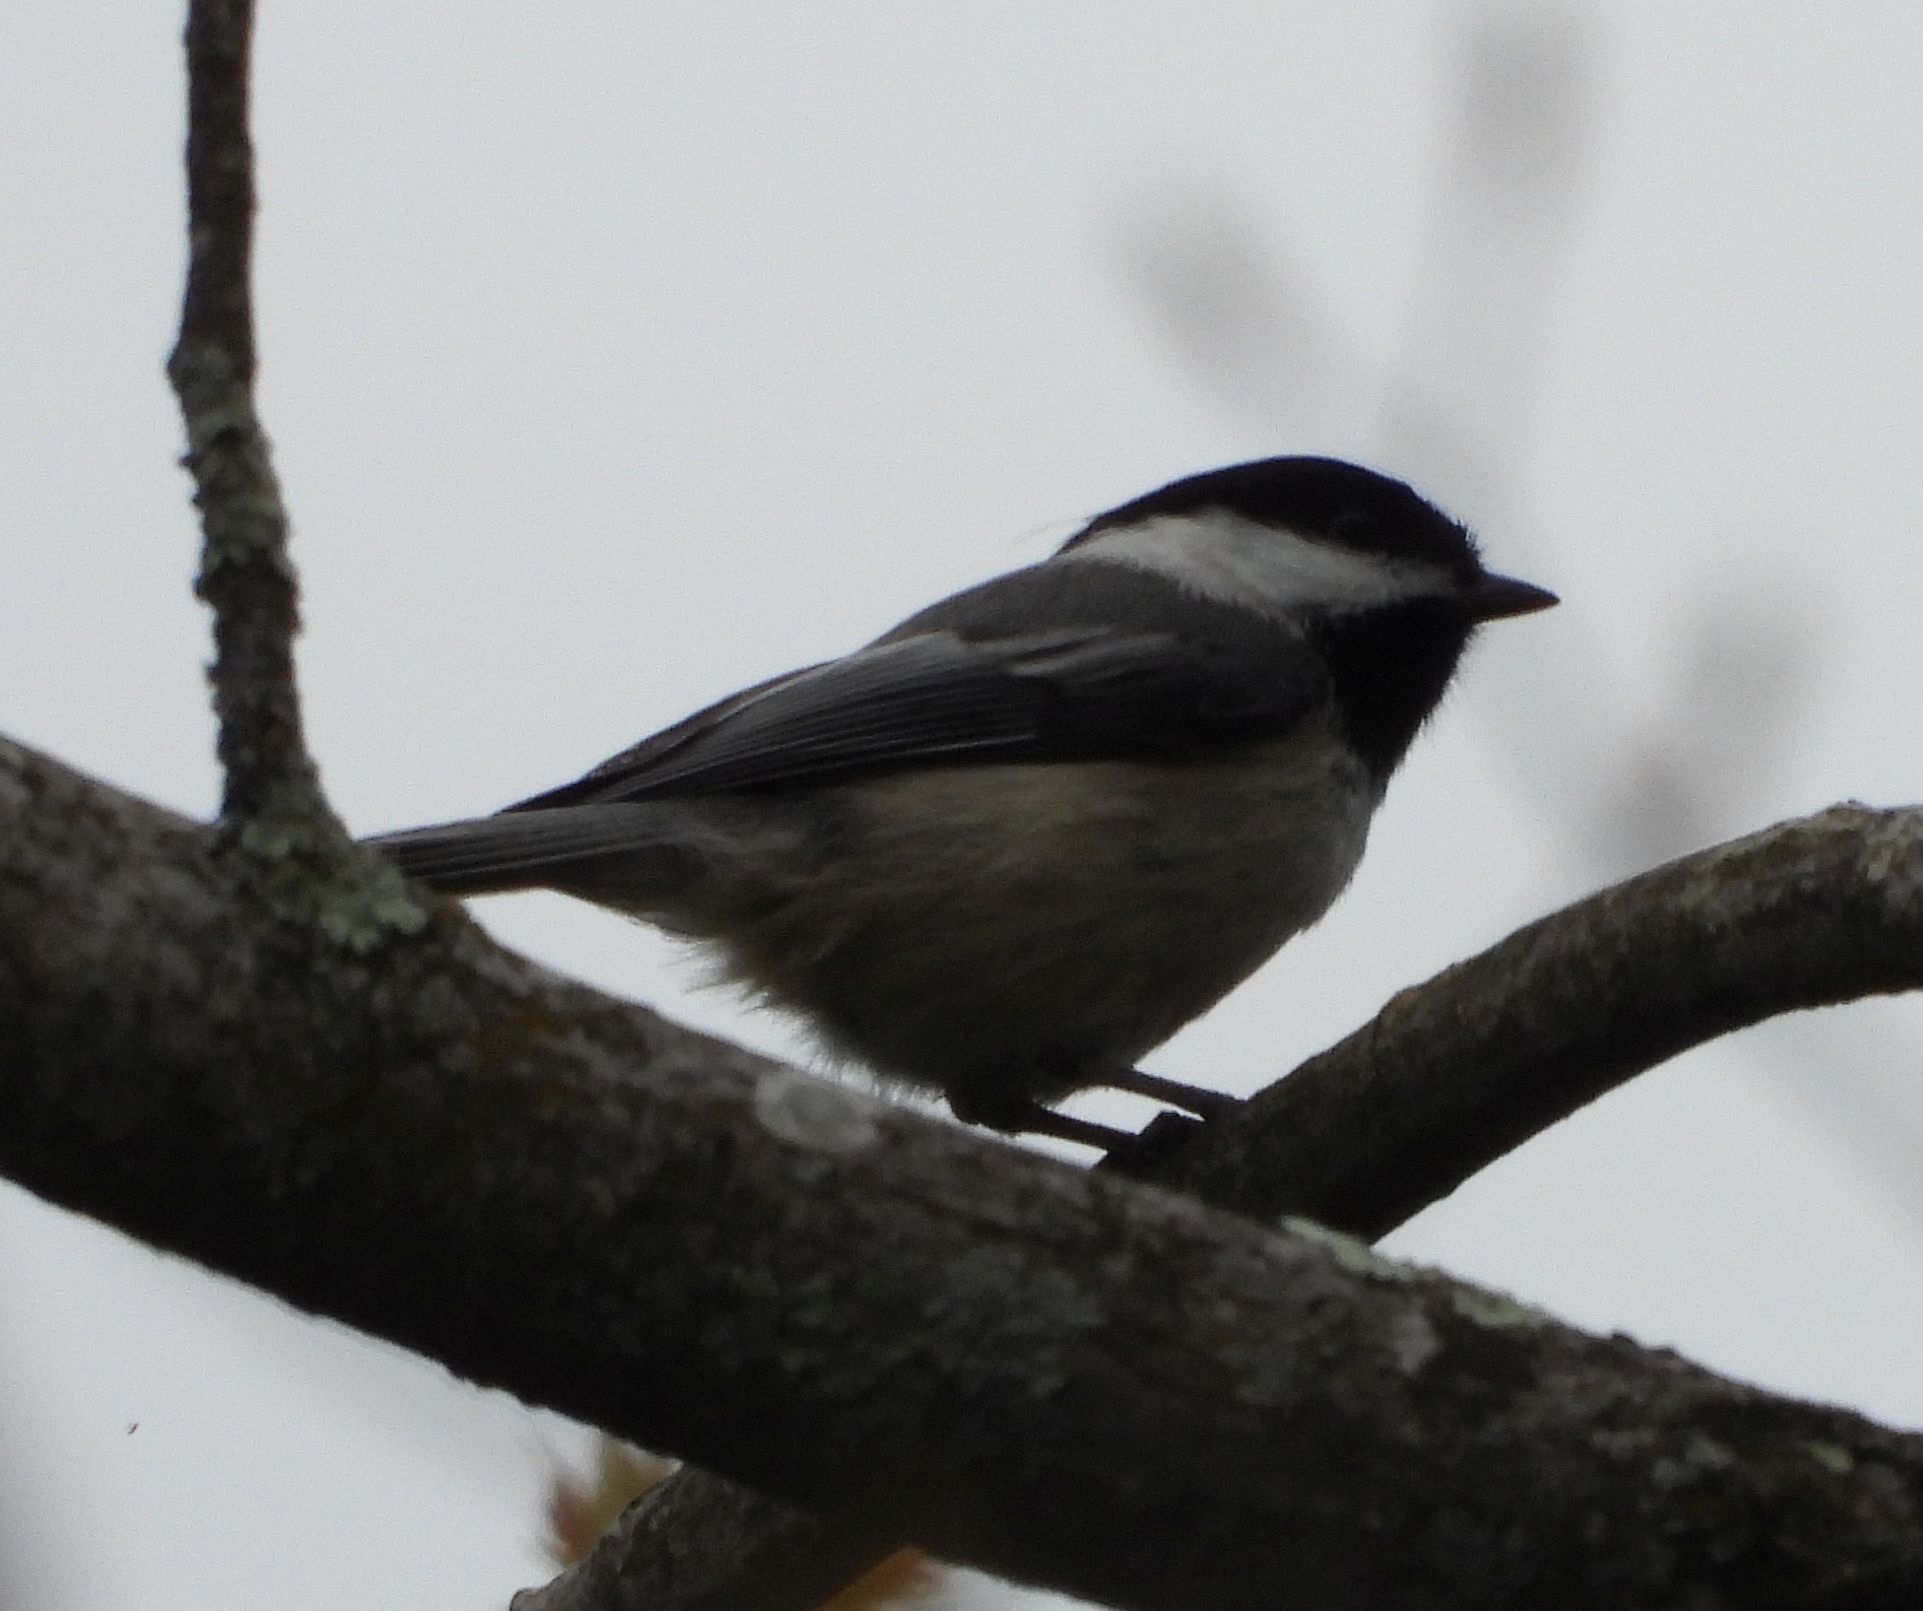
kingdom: Animalia
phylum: Chordata
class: Aves
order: Passeriformes
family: Paridae
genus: Poecile
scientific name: Poecile atricapillus
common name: Black-capped chickadee
